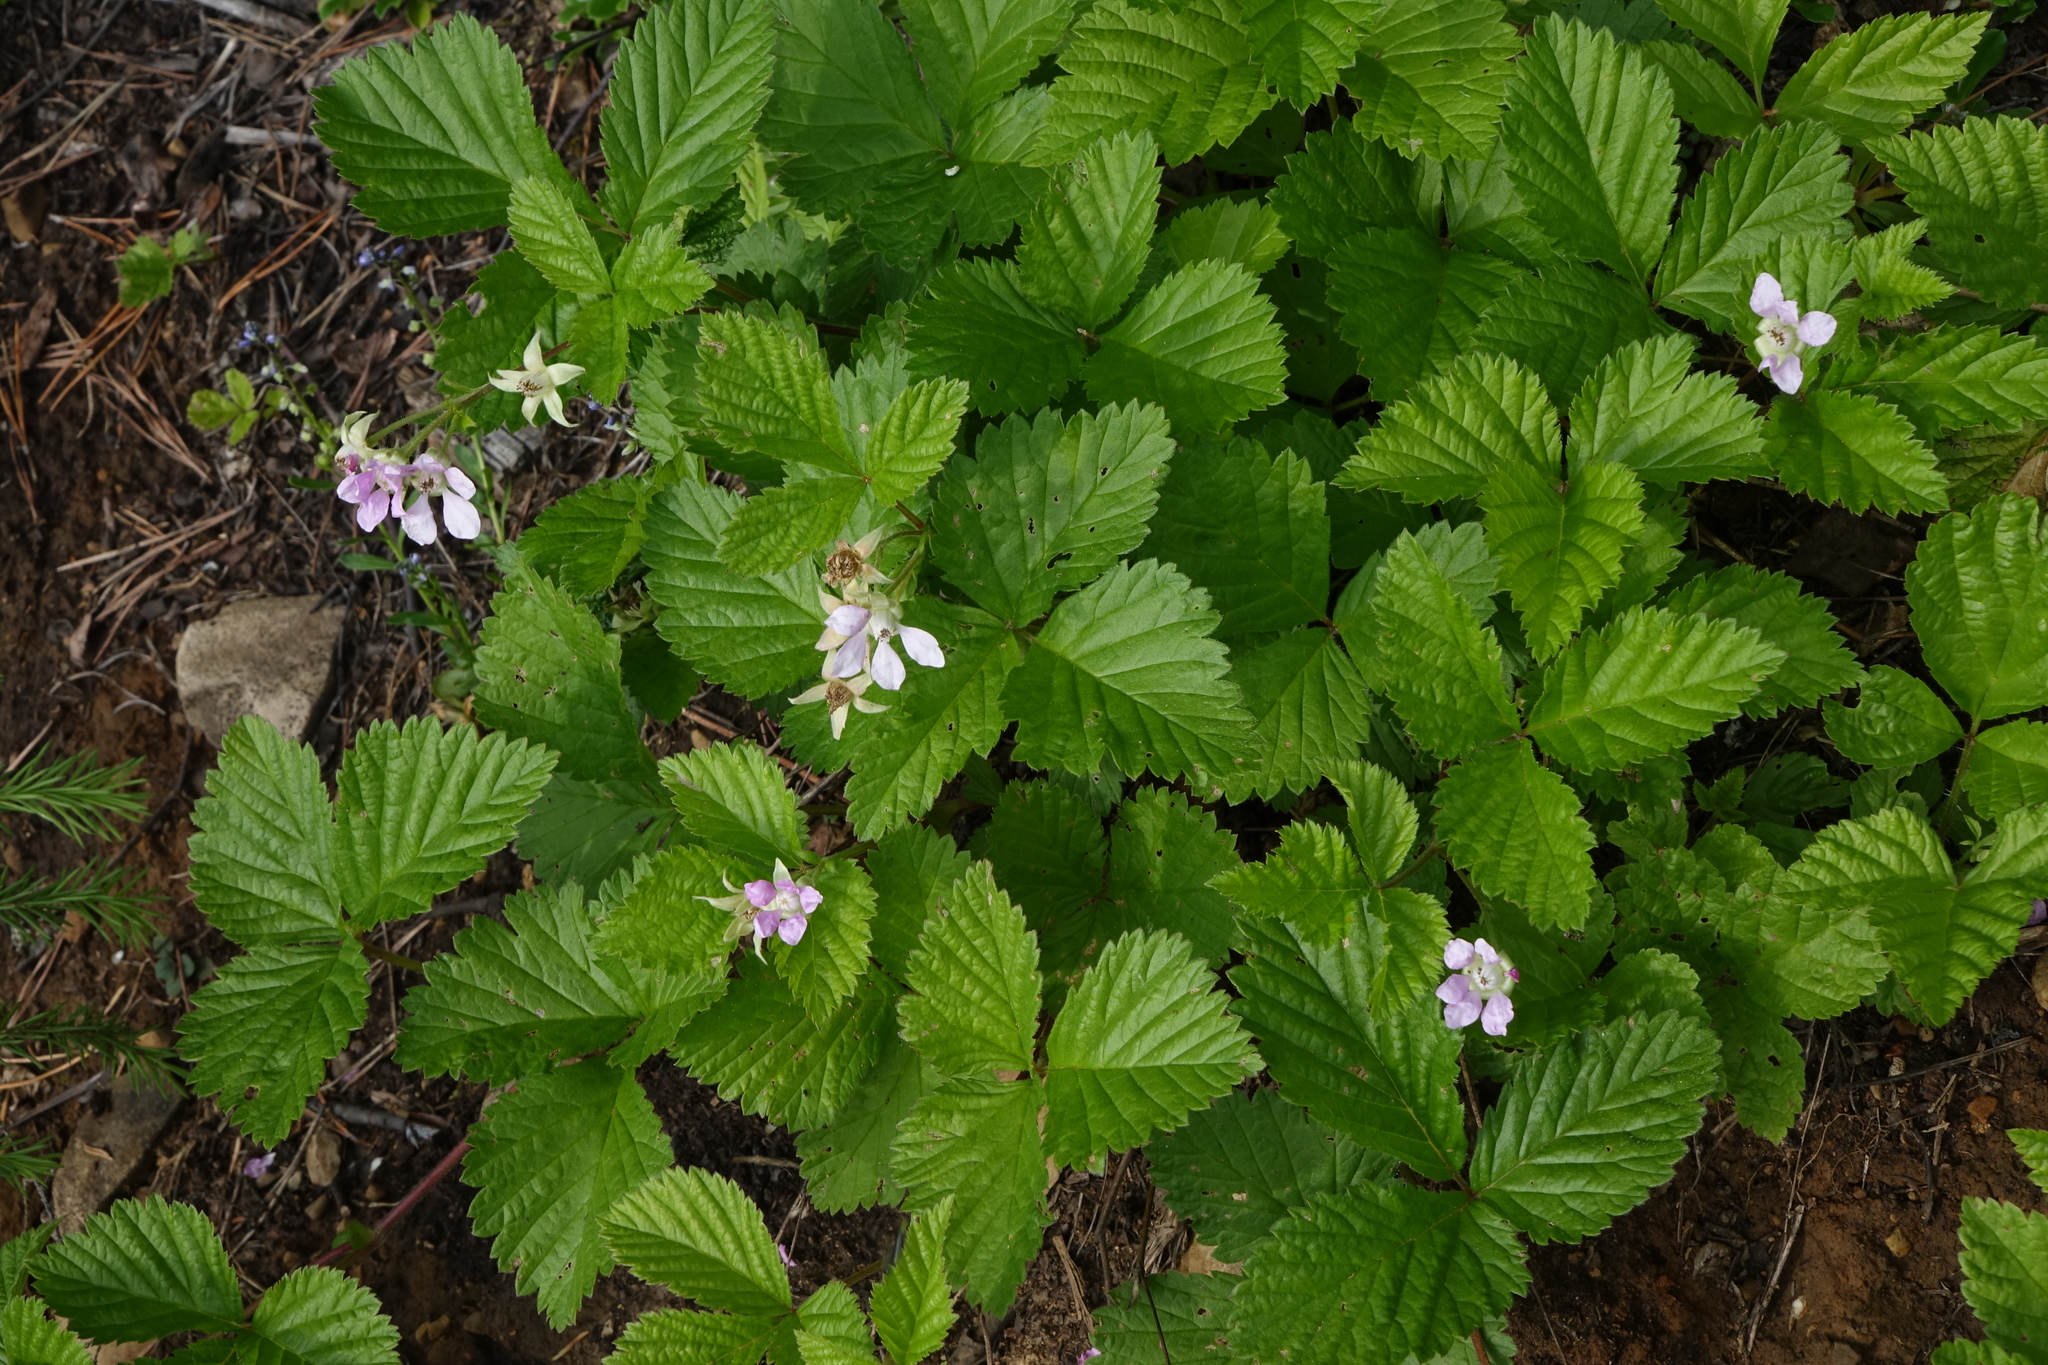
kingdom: Plantae
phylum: Tracheophyta
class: Magnoliopsida
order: Rosales
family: Rosaceae
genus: Rubus
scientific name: Rubus castoreus
